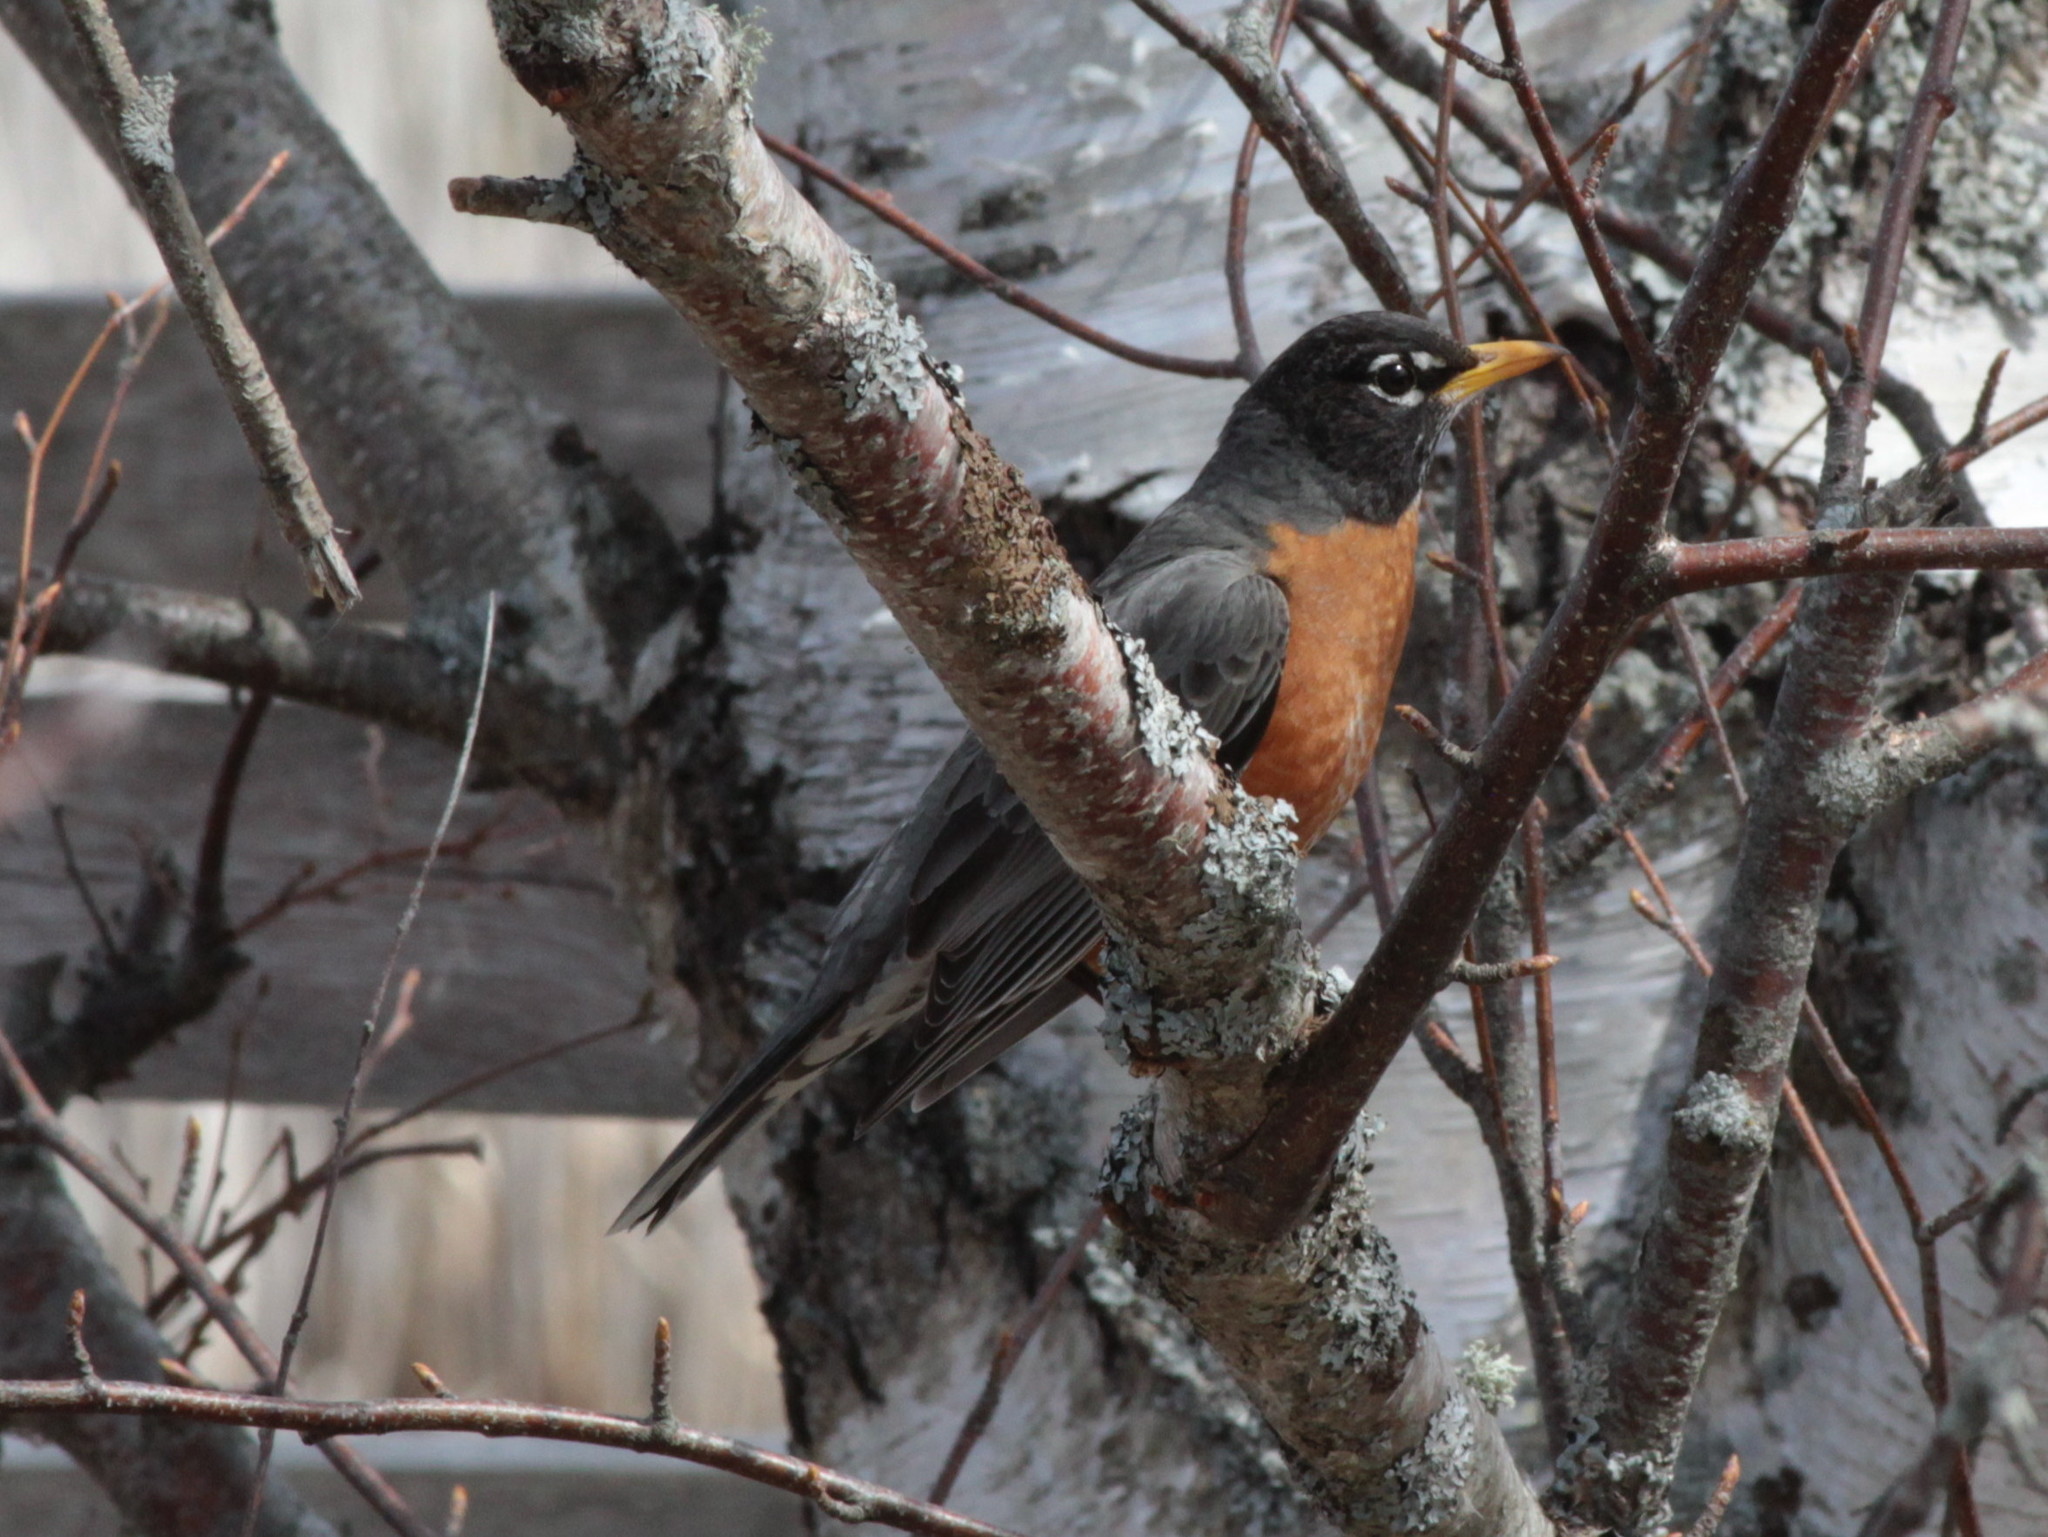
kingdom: Animalia
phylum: Chordata
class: Aves
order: Passeriformes
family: Turdidae
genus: Turdus
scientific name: Turdus migratorius
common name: American robin
